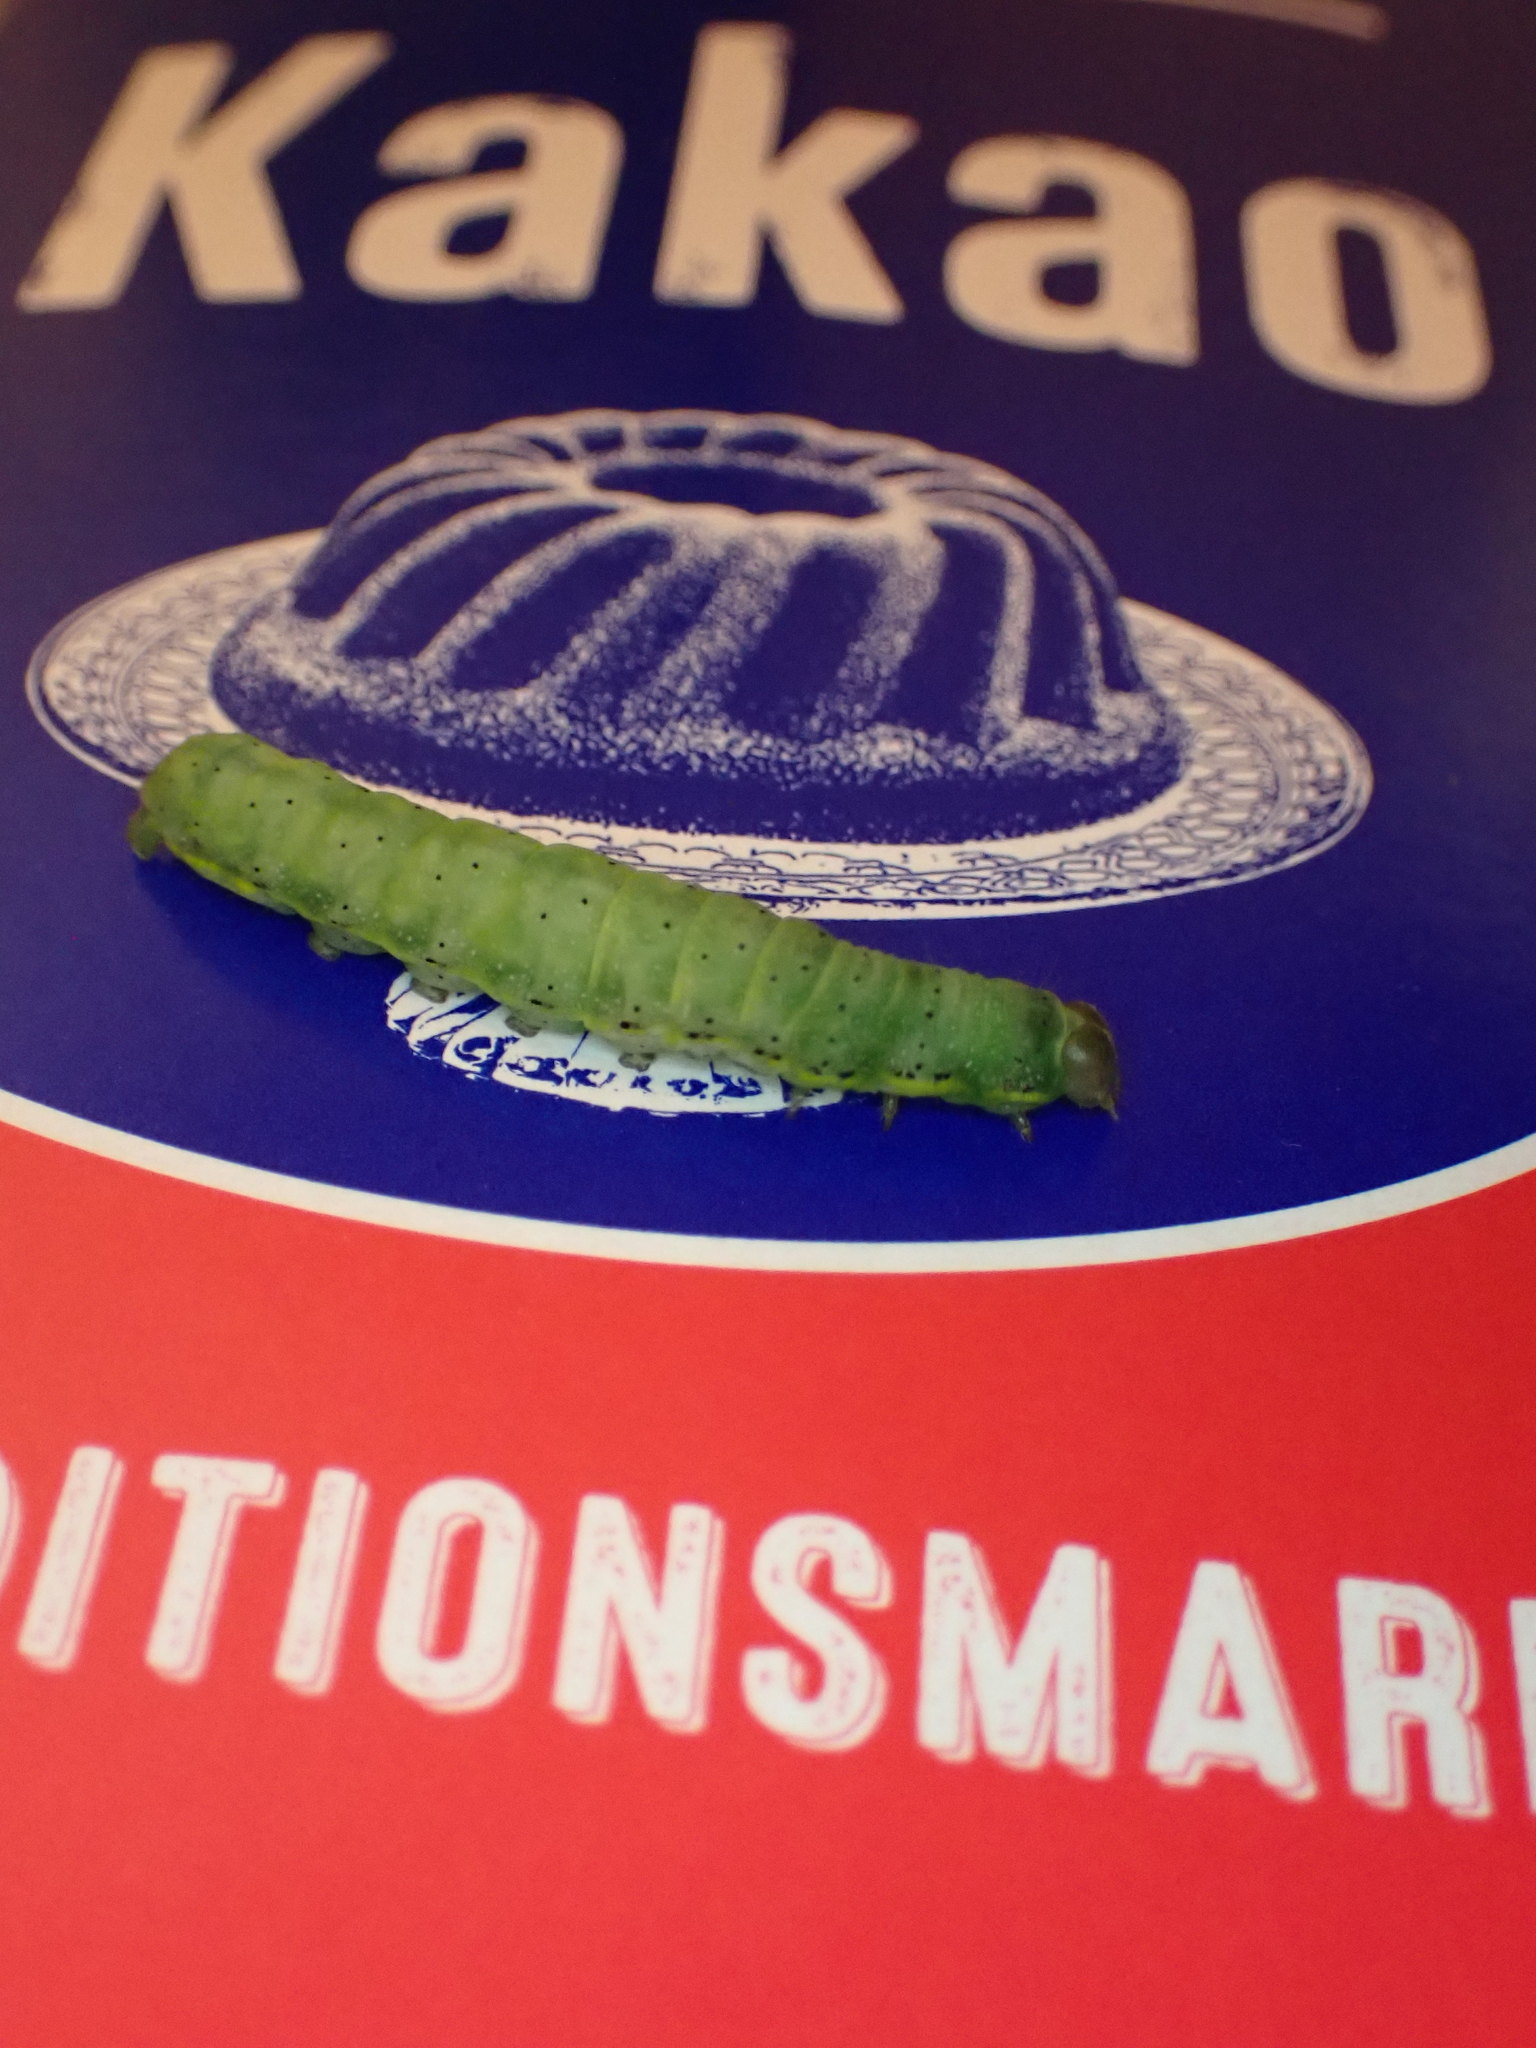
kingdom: Animalia
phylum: Arthropoda
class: Insecta
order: Lepidoptera
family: Noctuidae
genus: Lacanobia
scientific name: Lacanobia oleracea
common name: Bright-line brown-eye
